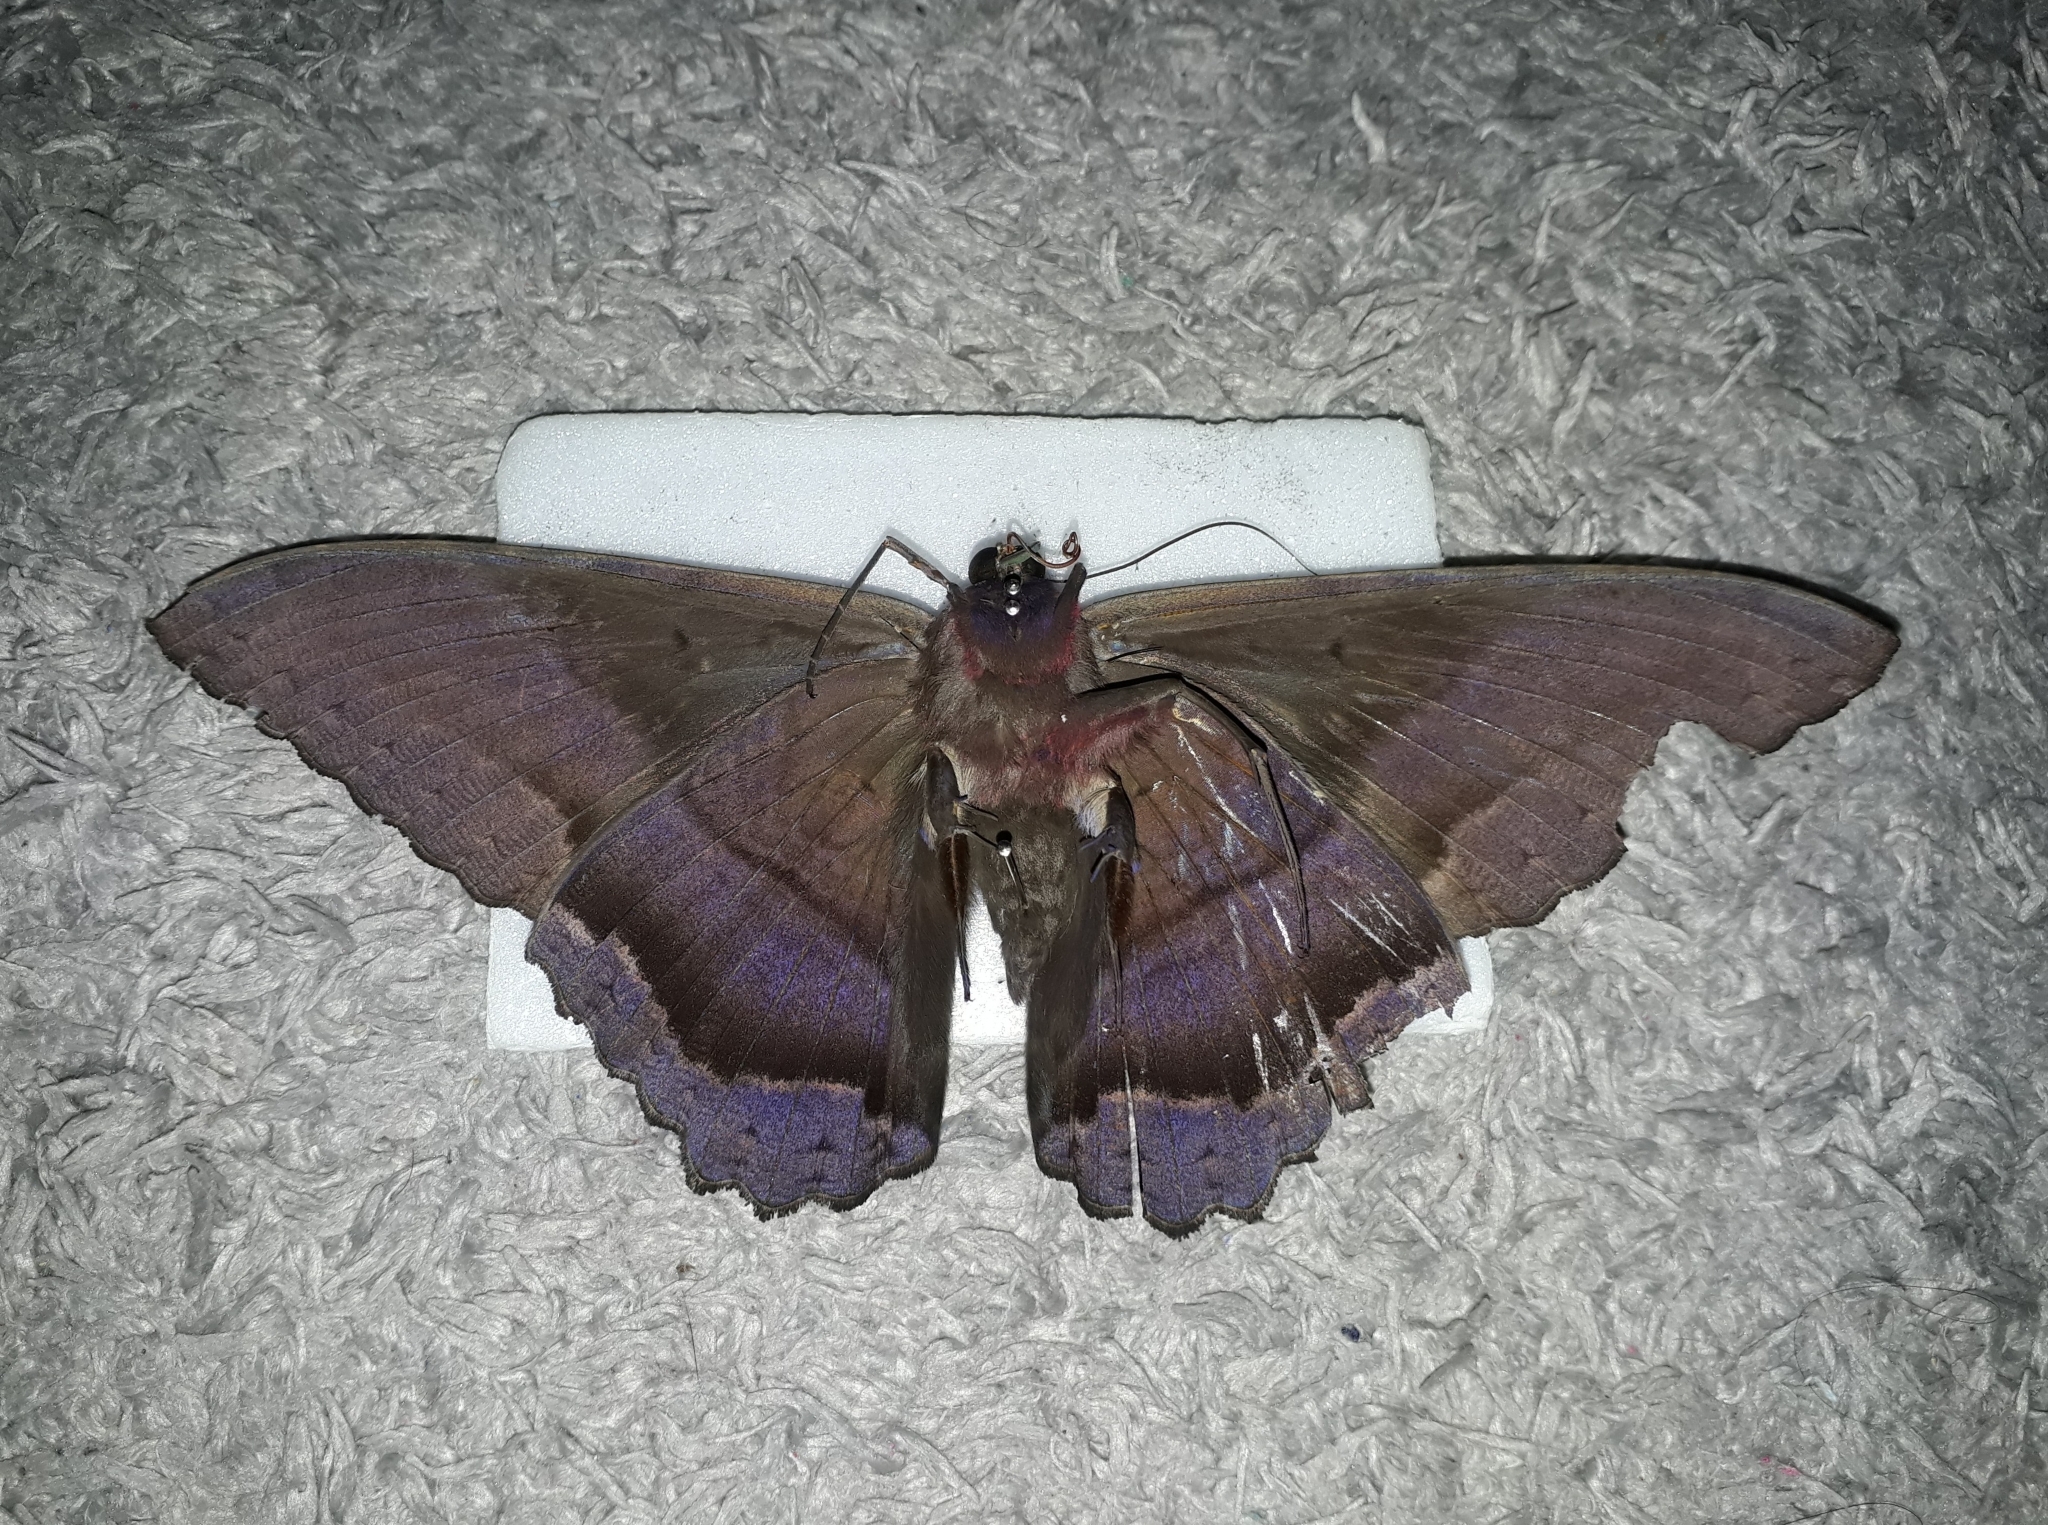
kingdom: Animalia
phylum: Arthropoda
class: Insecta
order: Lepidoptera
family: Erebidae
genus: Ascalapha
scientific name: Ascalapha odorata
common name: Black witch
